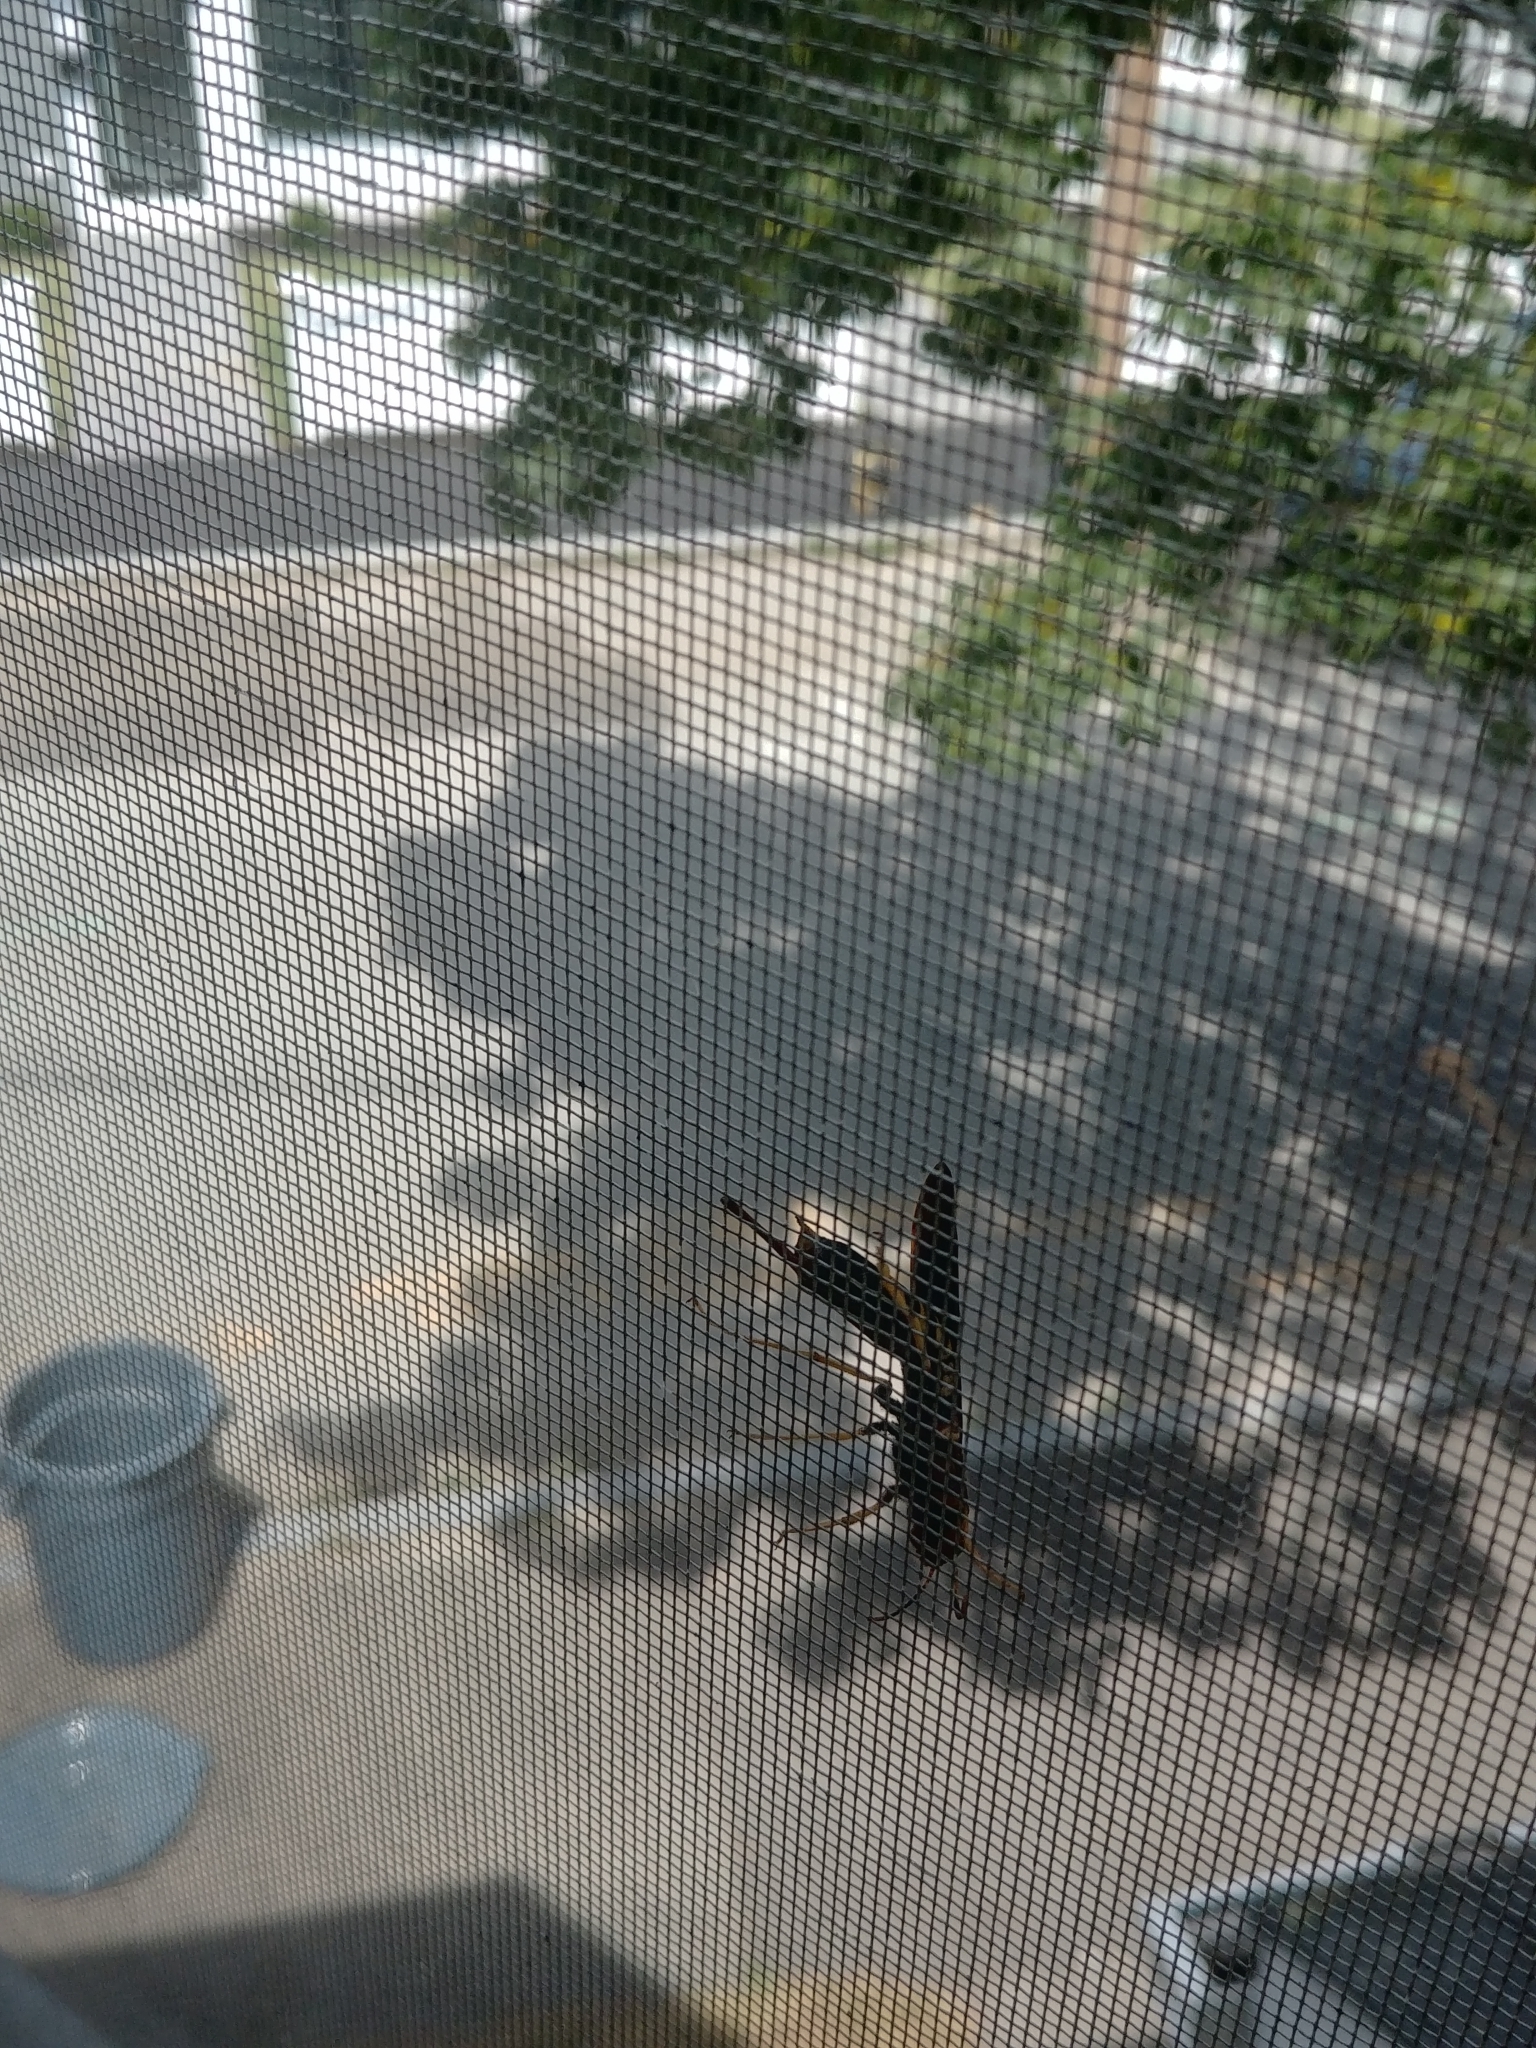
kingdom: Animalia
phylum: Arthropoda
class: Insecta
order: Hymenoptera
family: Siricidae
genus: Tremex
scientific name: Tremex columba
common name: Wasp
